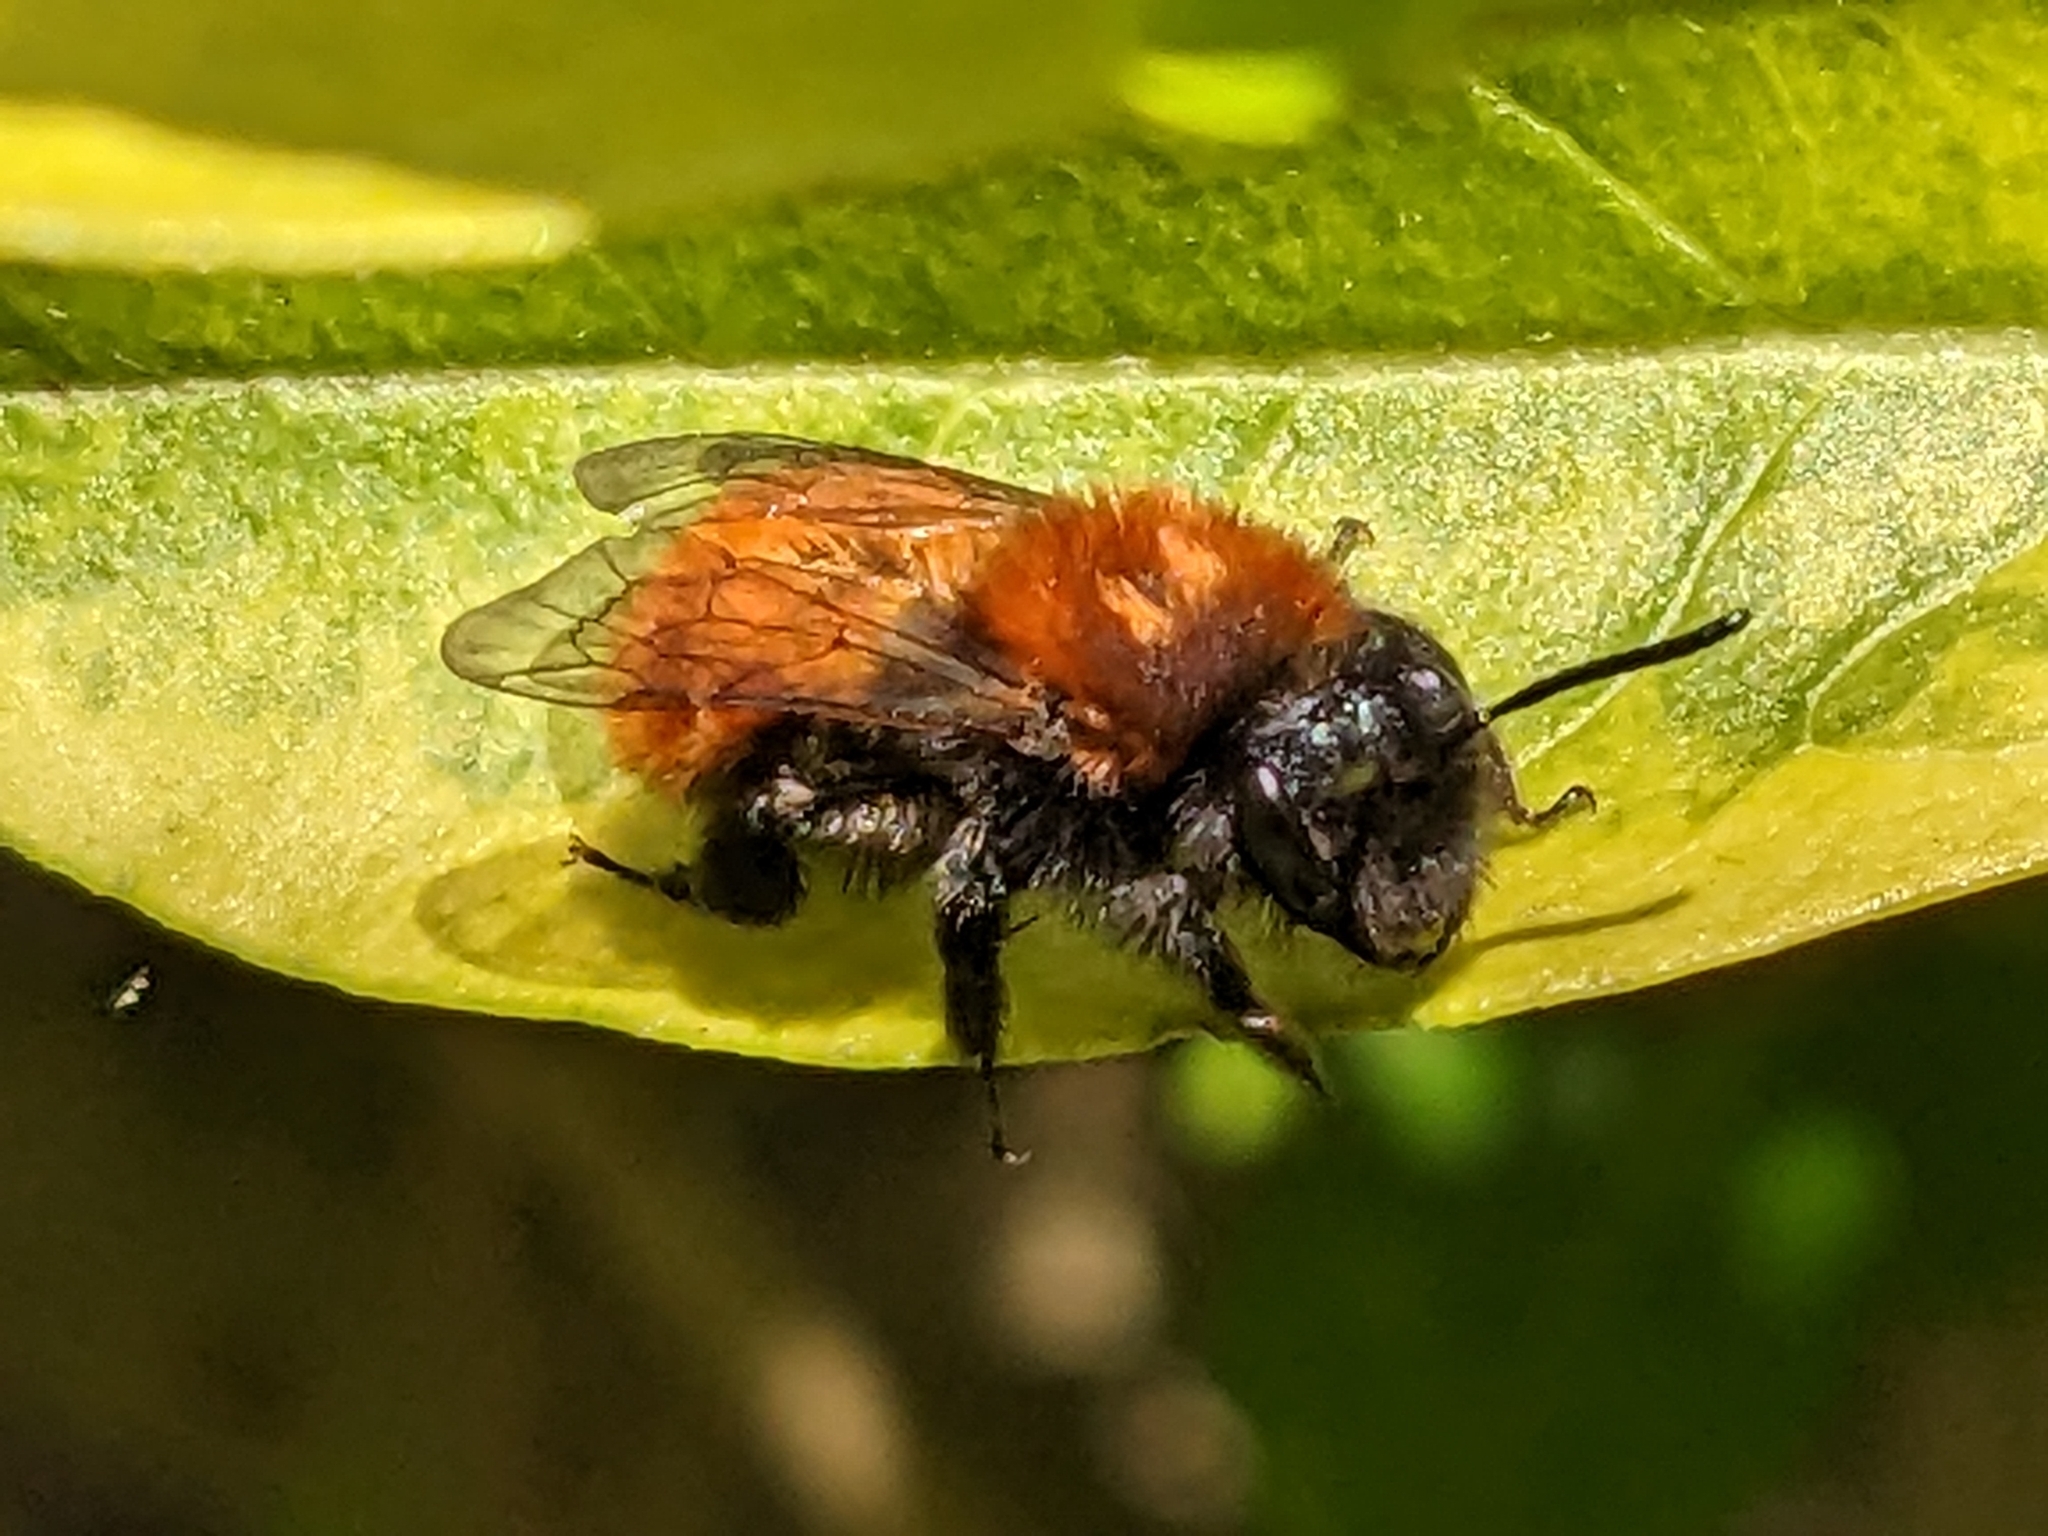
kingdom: Animalia
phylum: Arthropoda
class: Insecta
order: Hymenoptera
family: Andrenidae
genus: Andrena
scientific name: Andrena fulva
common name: Tawny mining bee
